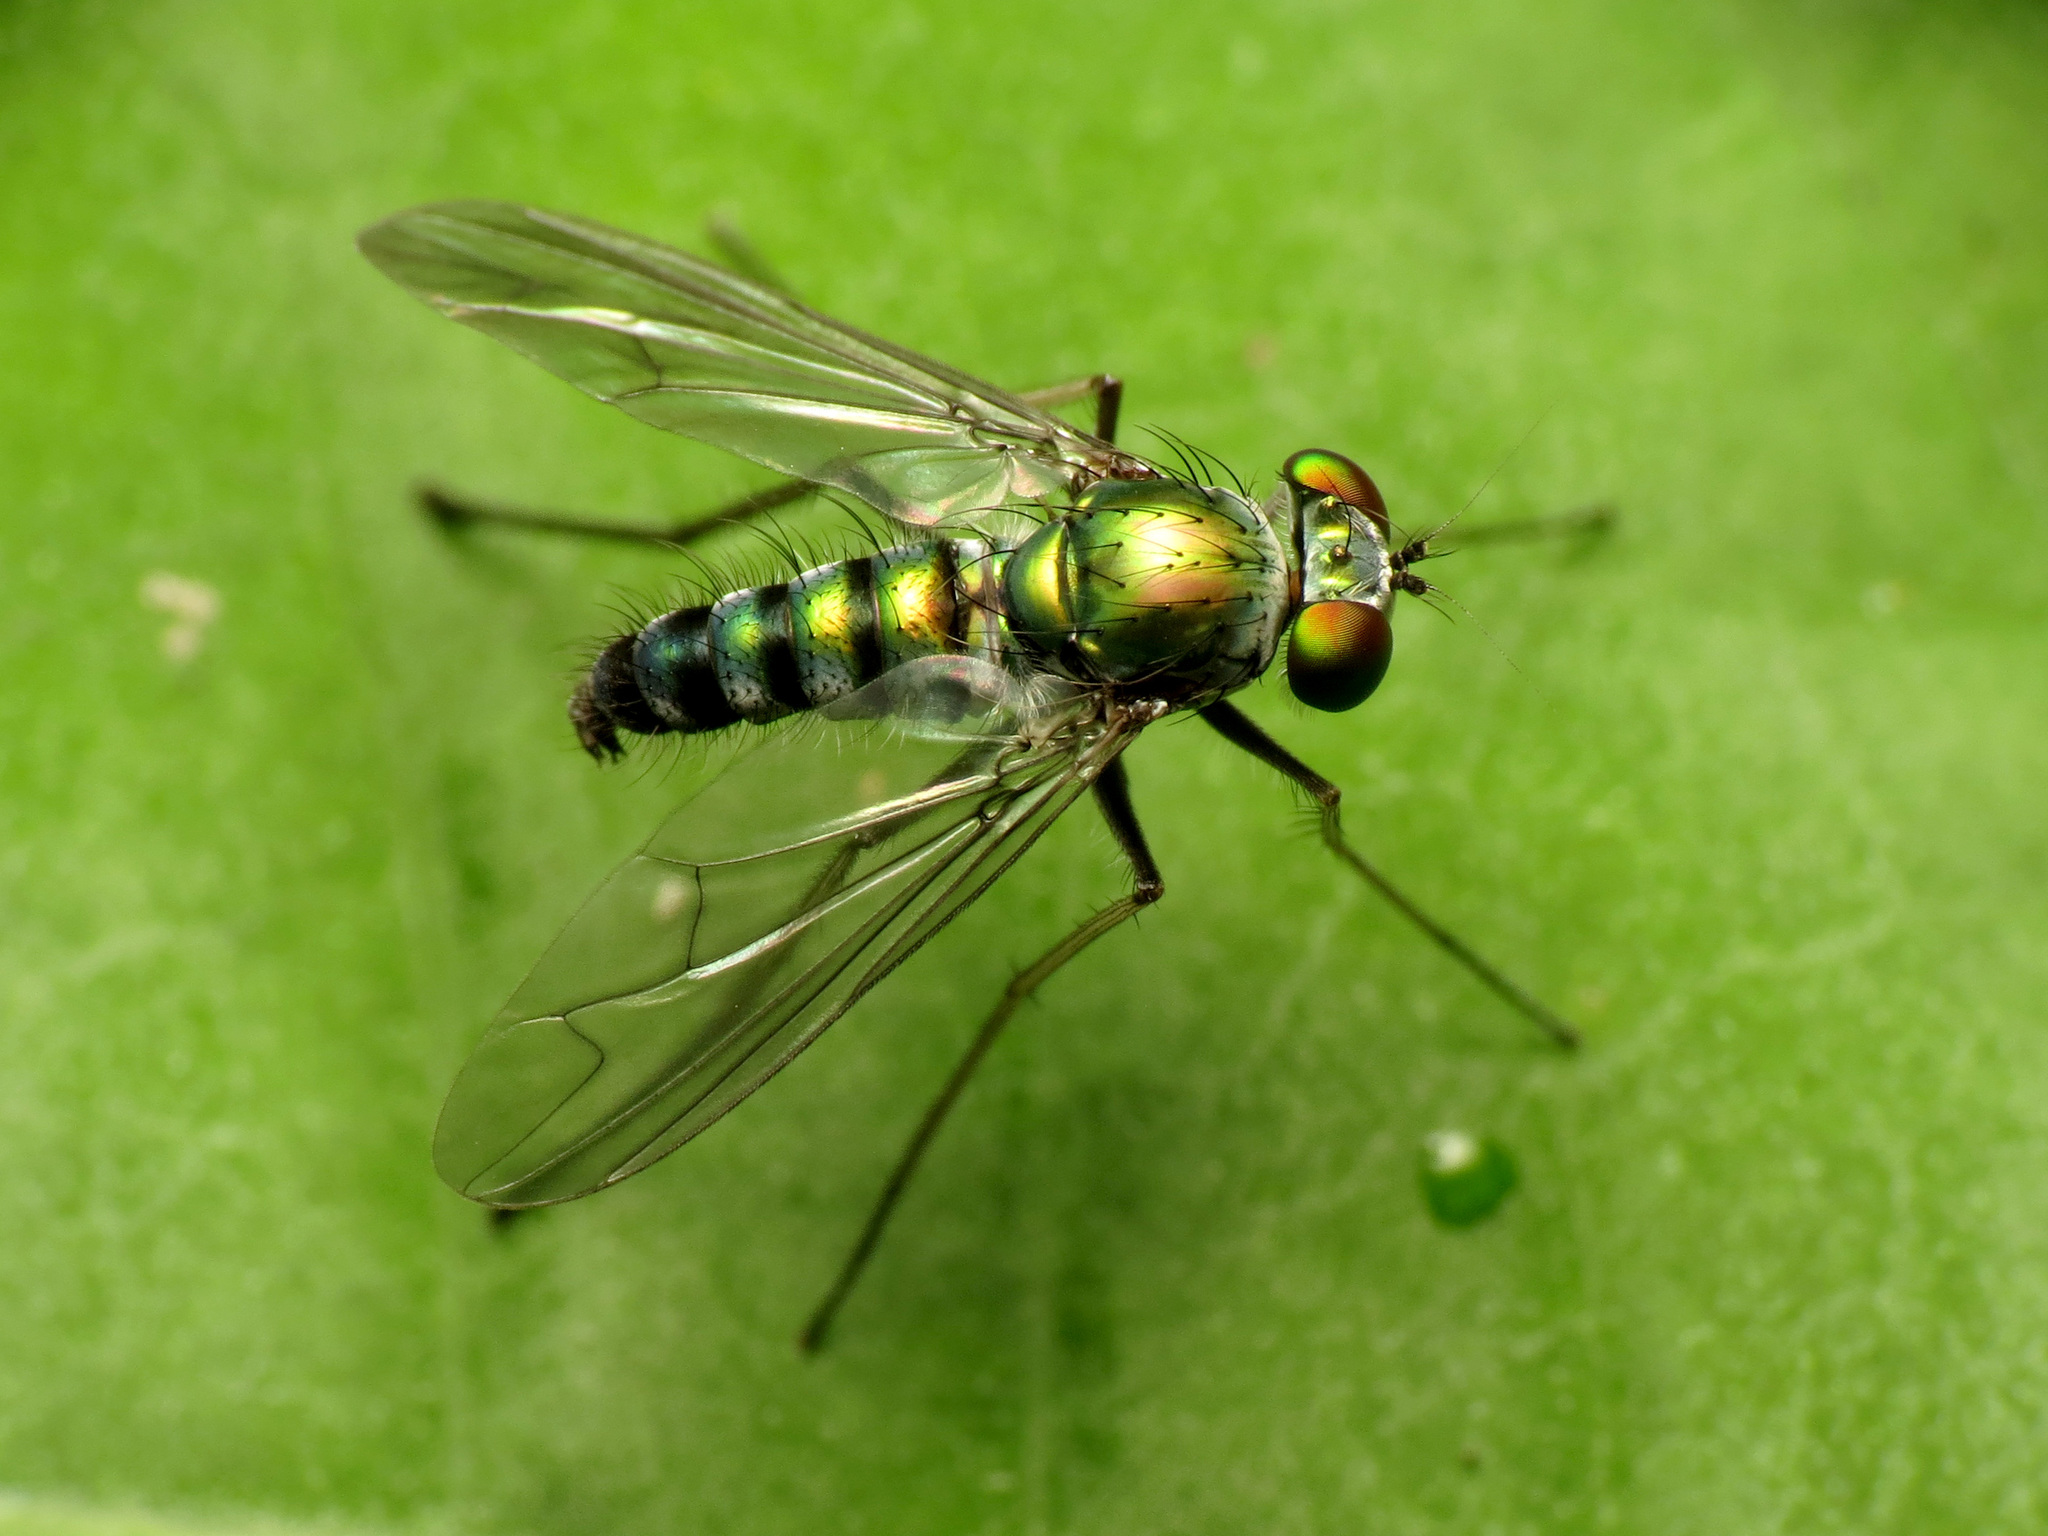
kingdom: Animalia
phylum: Arthropoda
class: Insecta
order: Diptera
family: Dolichopodidae
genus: Condylostylus
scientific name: Condylostylus leonardi
